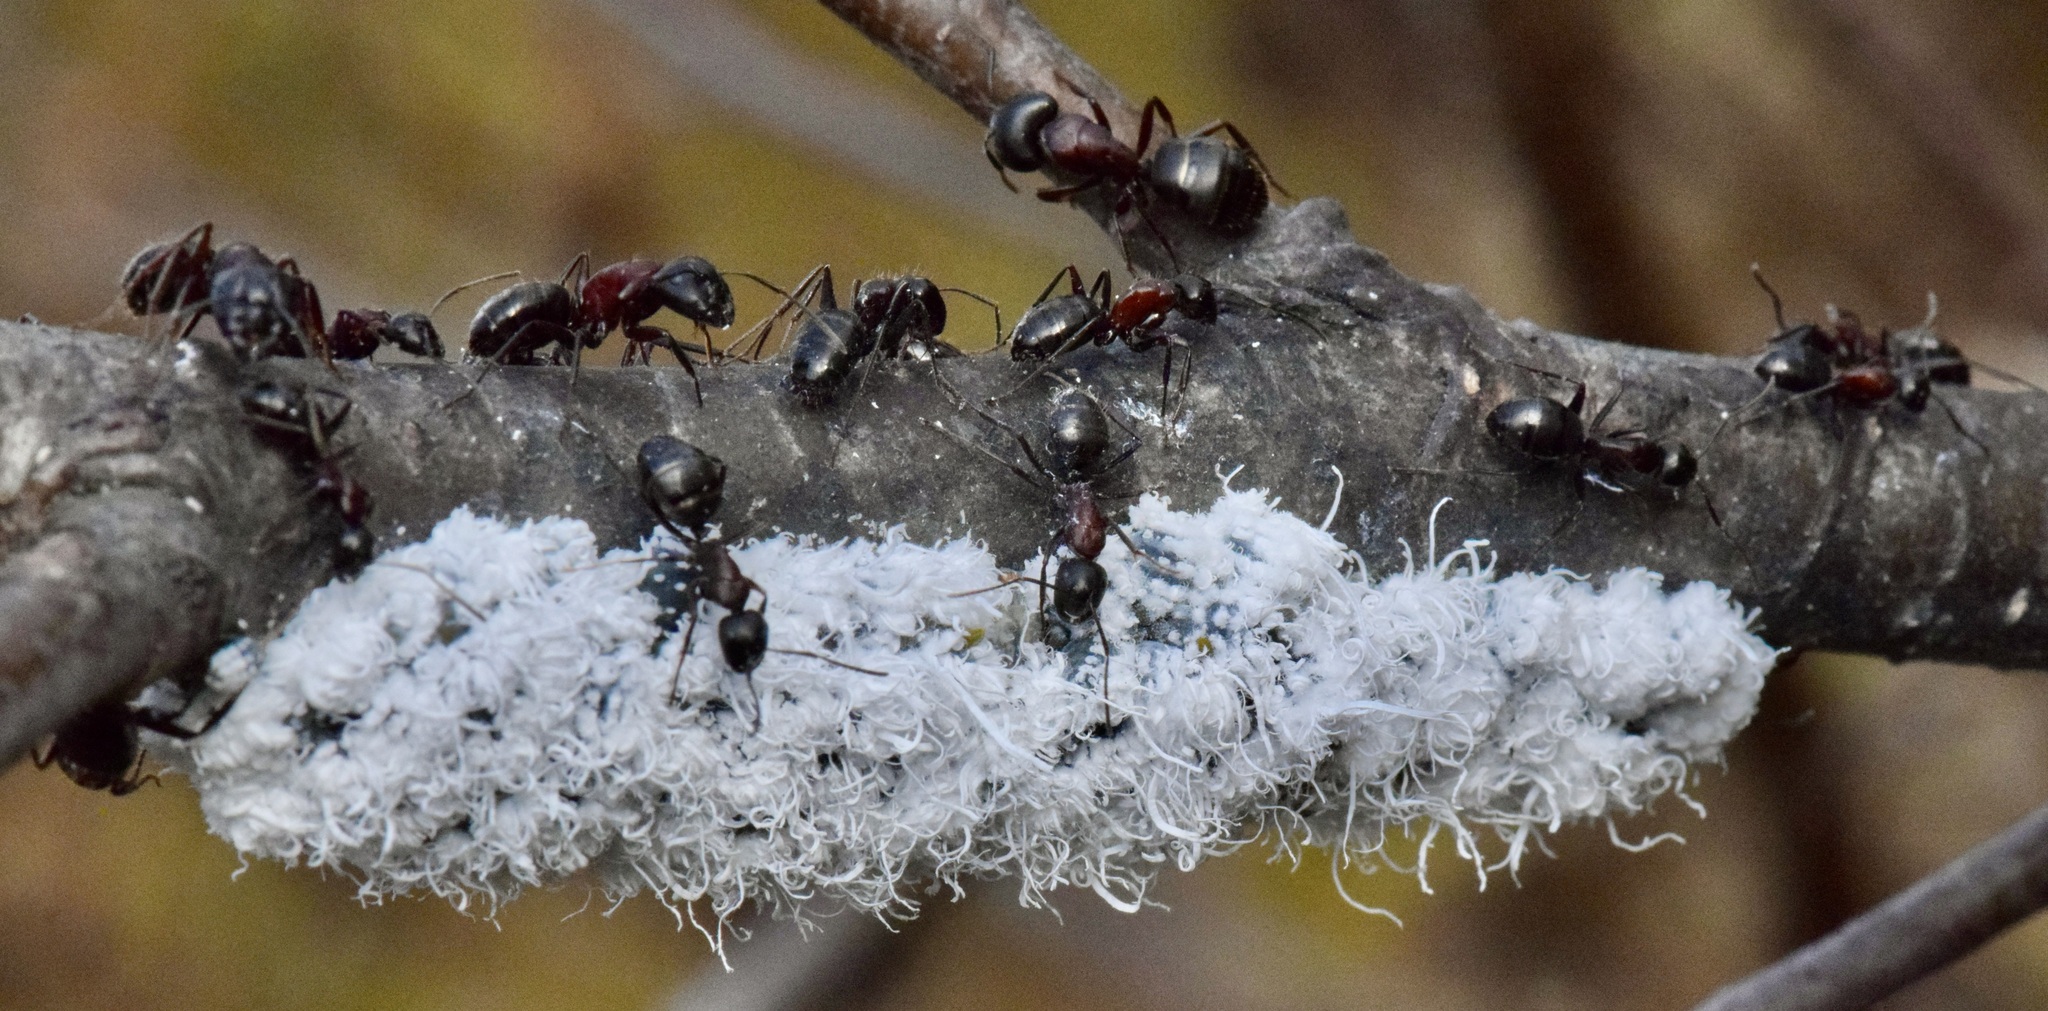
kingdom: Animalia
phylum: Arthropoda
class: Insecta
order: Hemiptera
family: Aphididae
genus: Prociphilus
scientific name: Prociphilus tessellatus
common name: Woolly alder aphid
